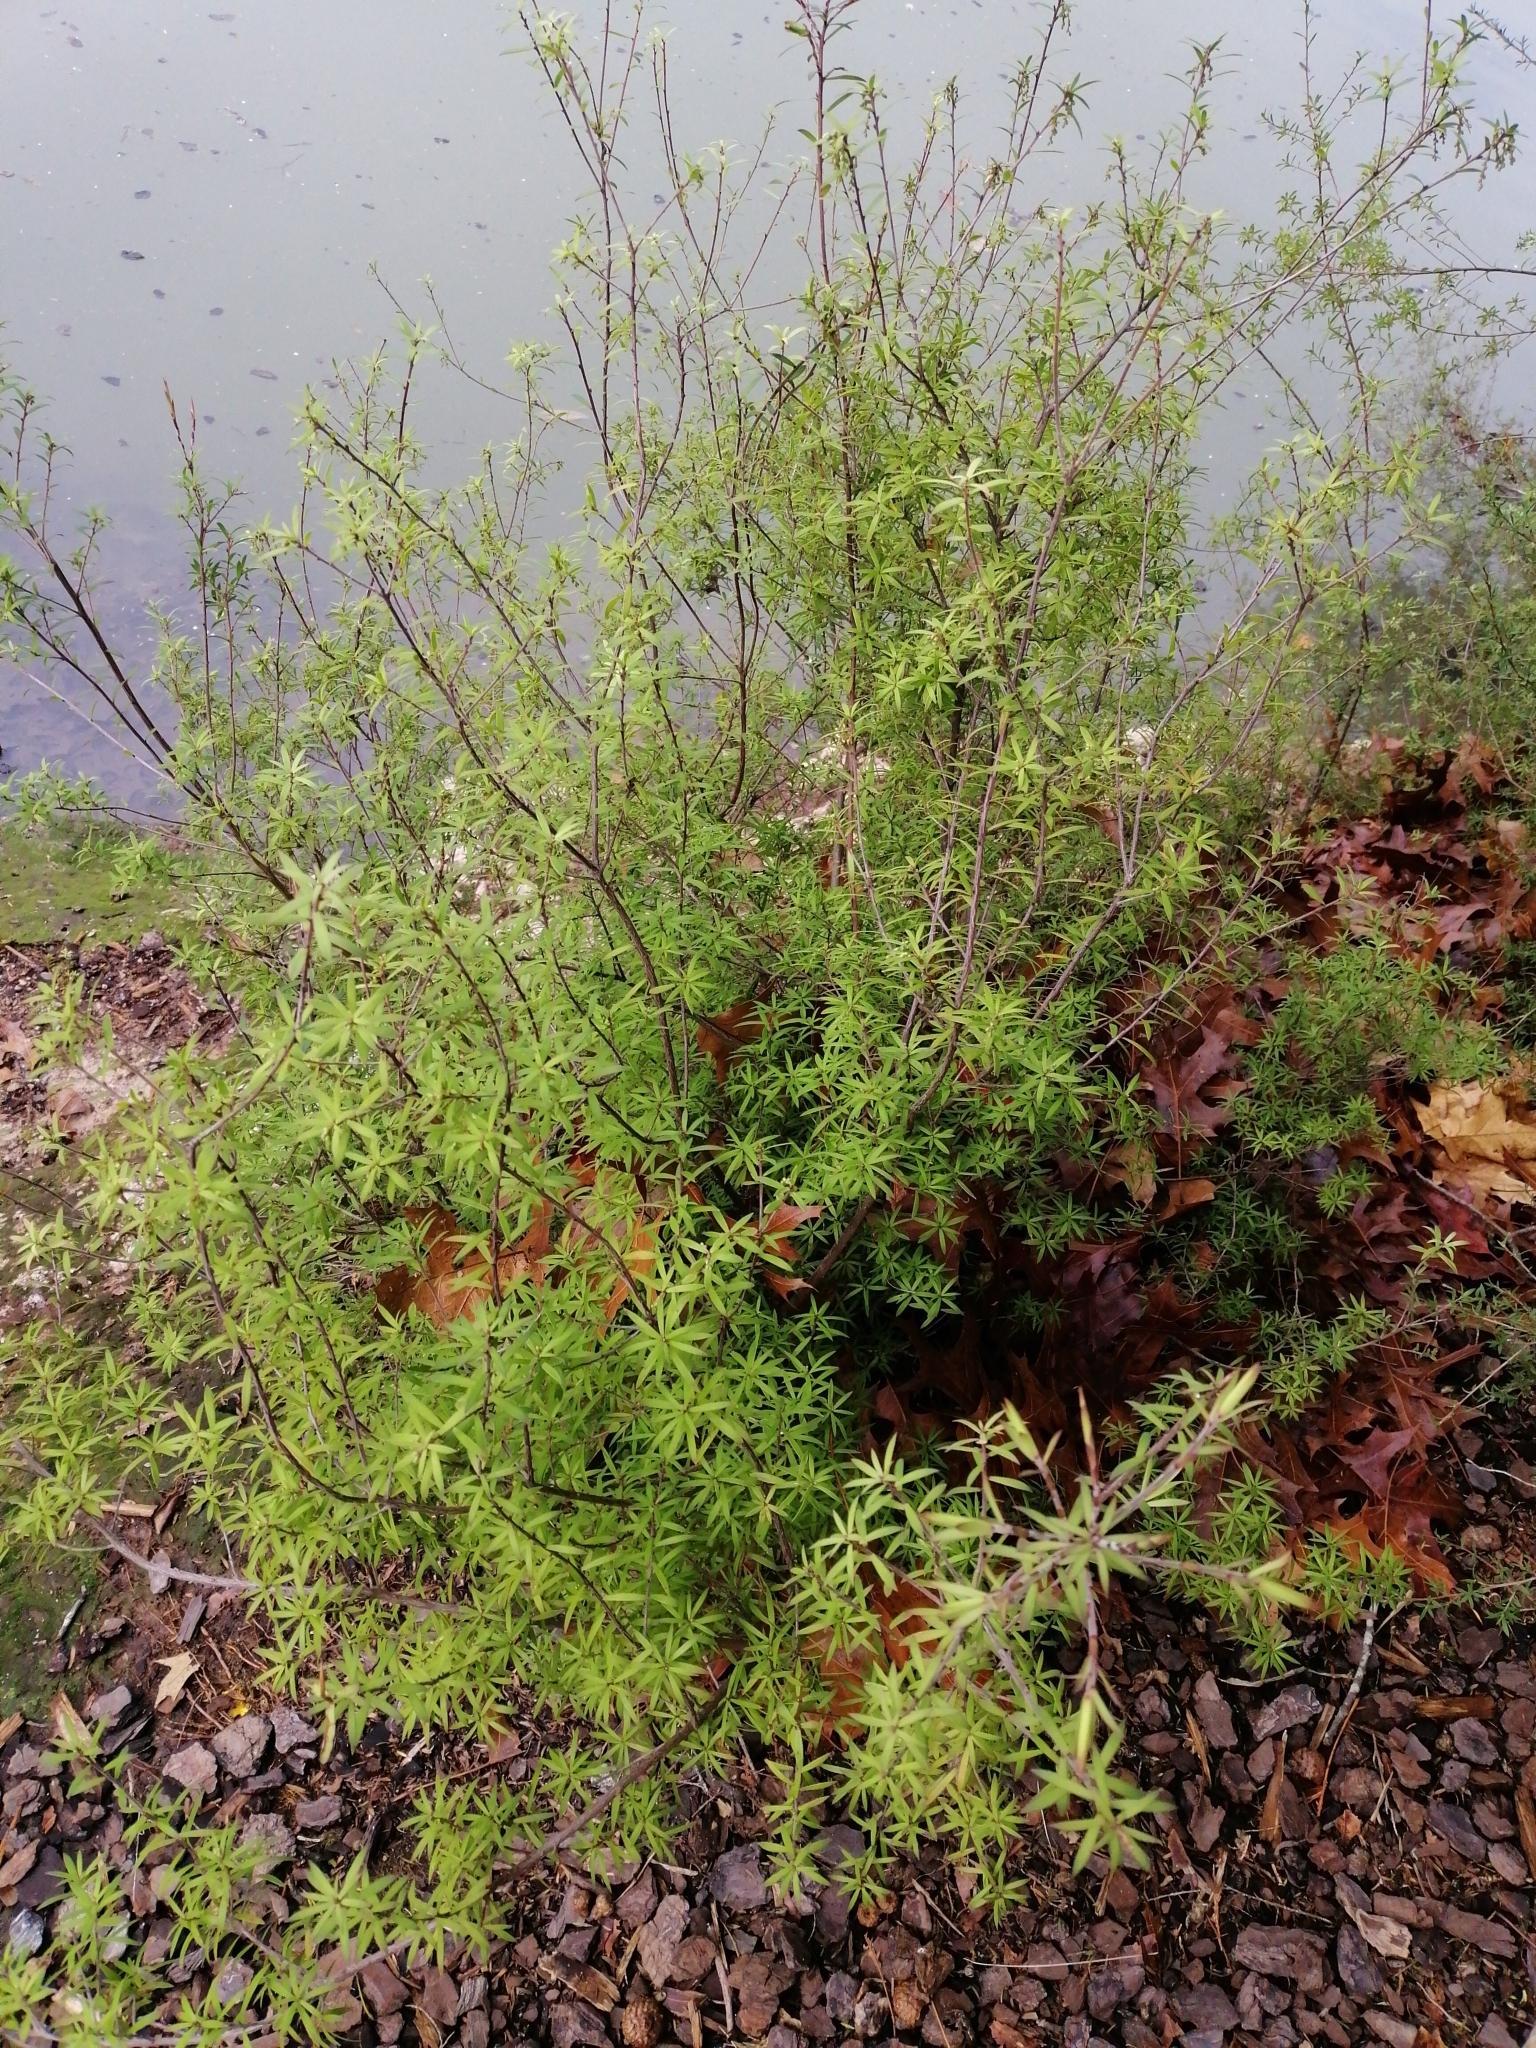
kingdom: Plantae
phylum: Tracheophyta
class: Magnoliopsida
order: Ericales
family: Ericaceae
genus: Leucopogon
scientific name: Leucopogon fasciculatus
